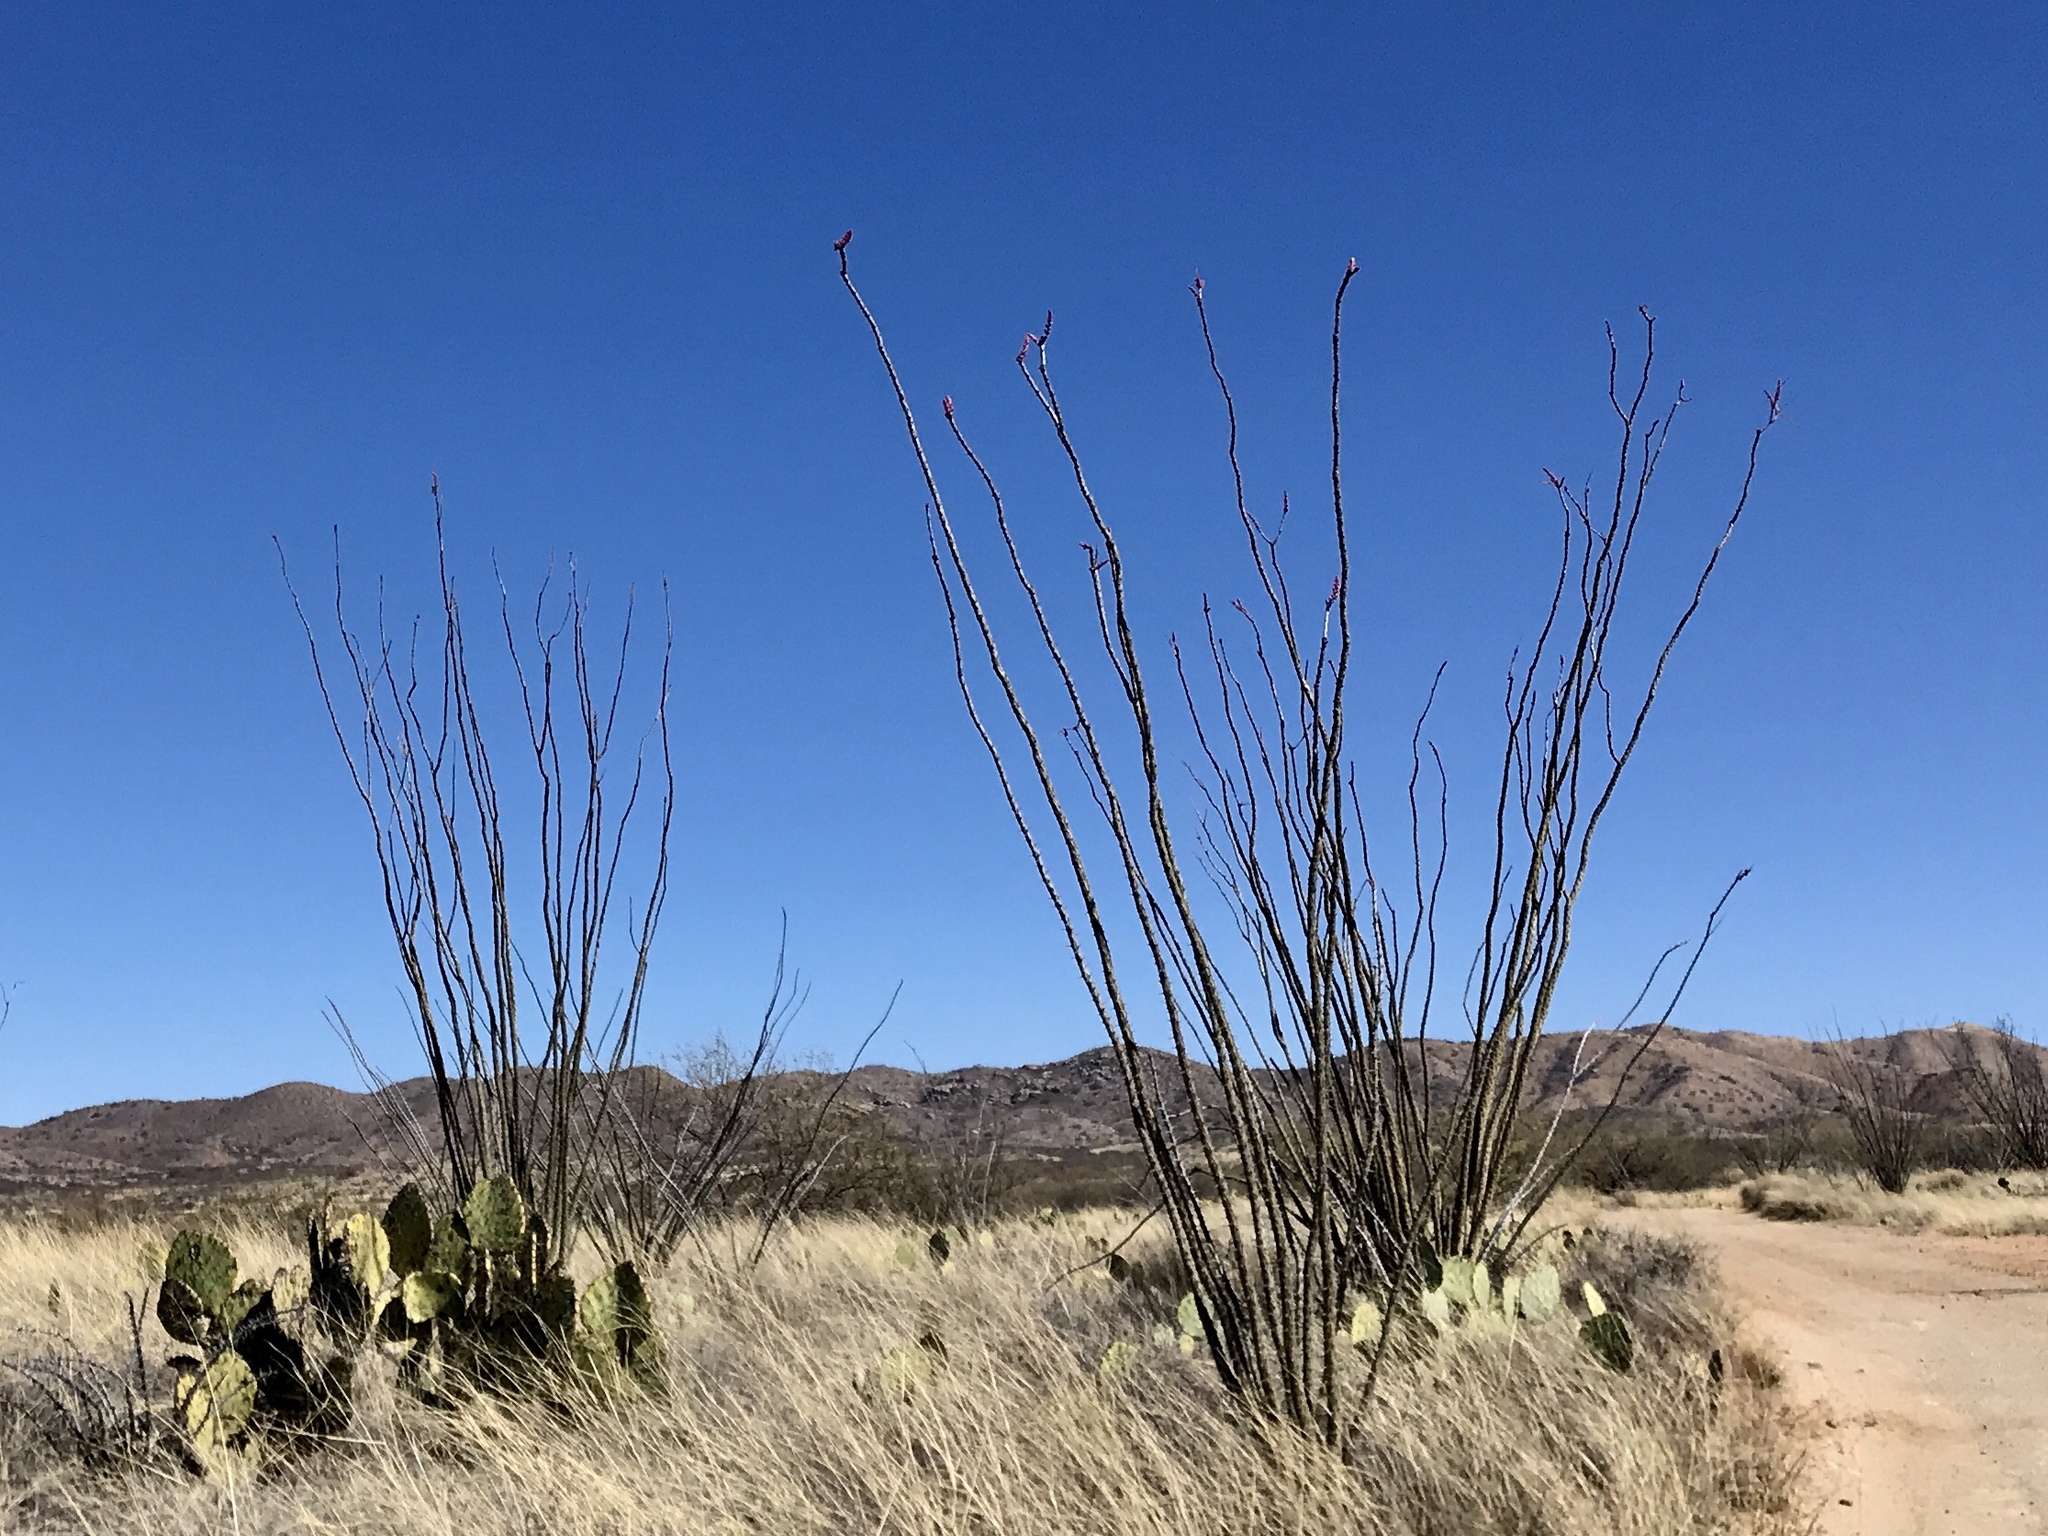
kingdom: Plantae
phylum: Tracheophyta
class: Magnoliopsida
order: Ericales
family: Fouquieriaceae
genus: Fouquieria
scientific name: Fouquieria splendens
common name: Vine-cactus
